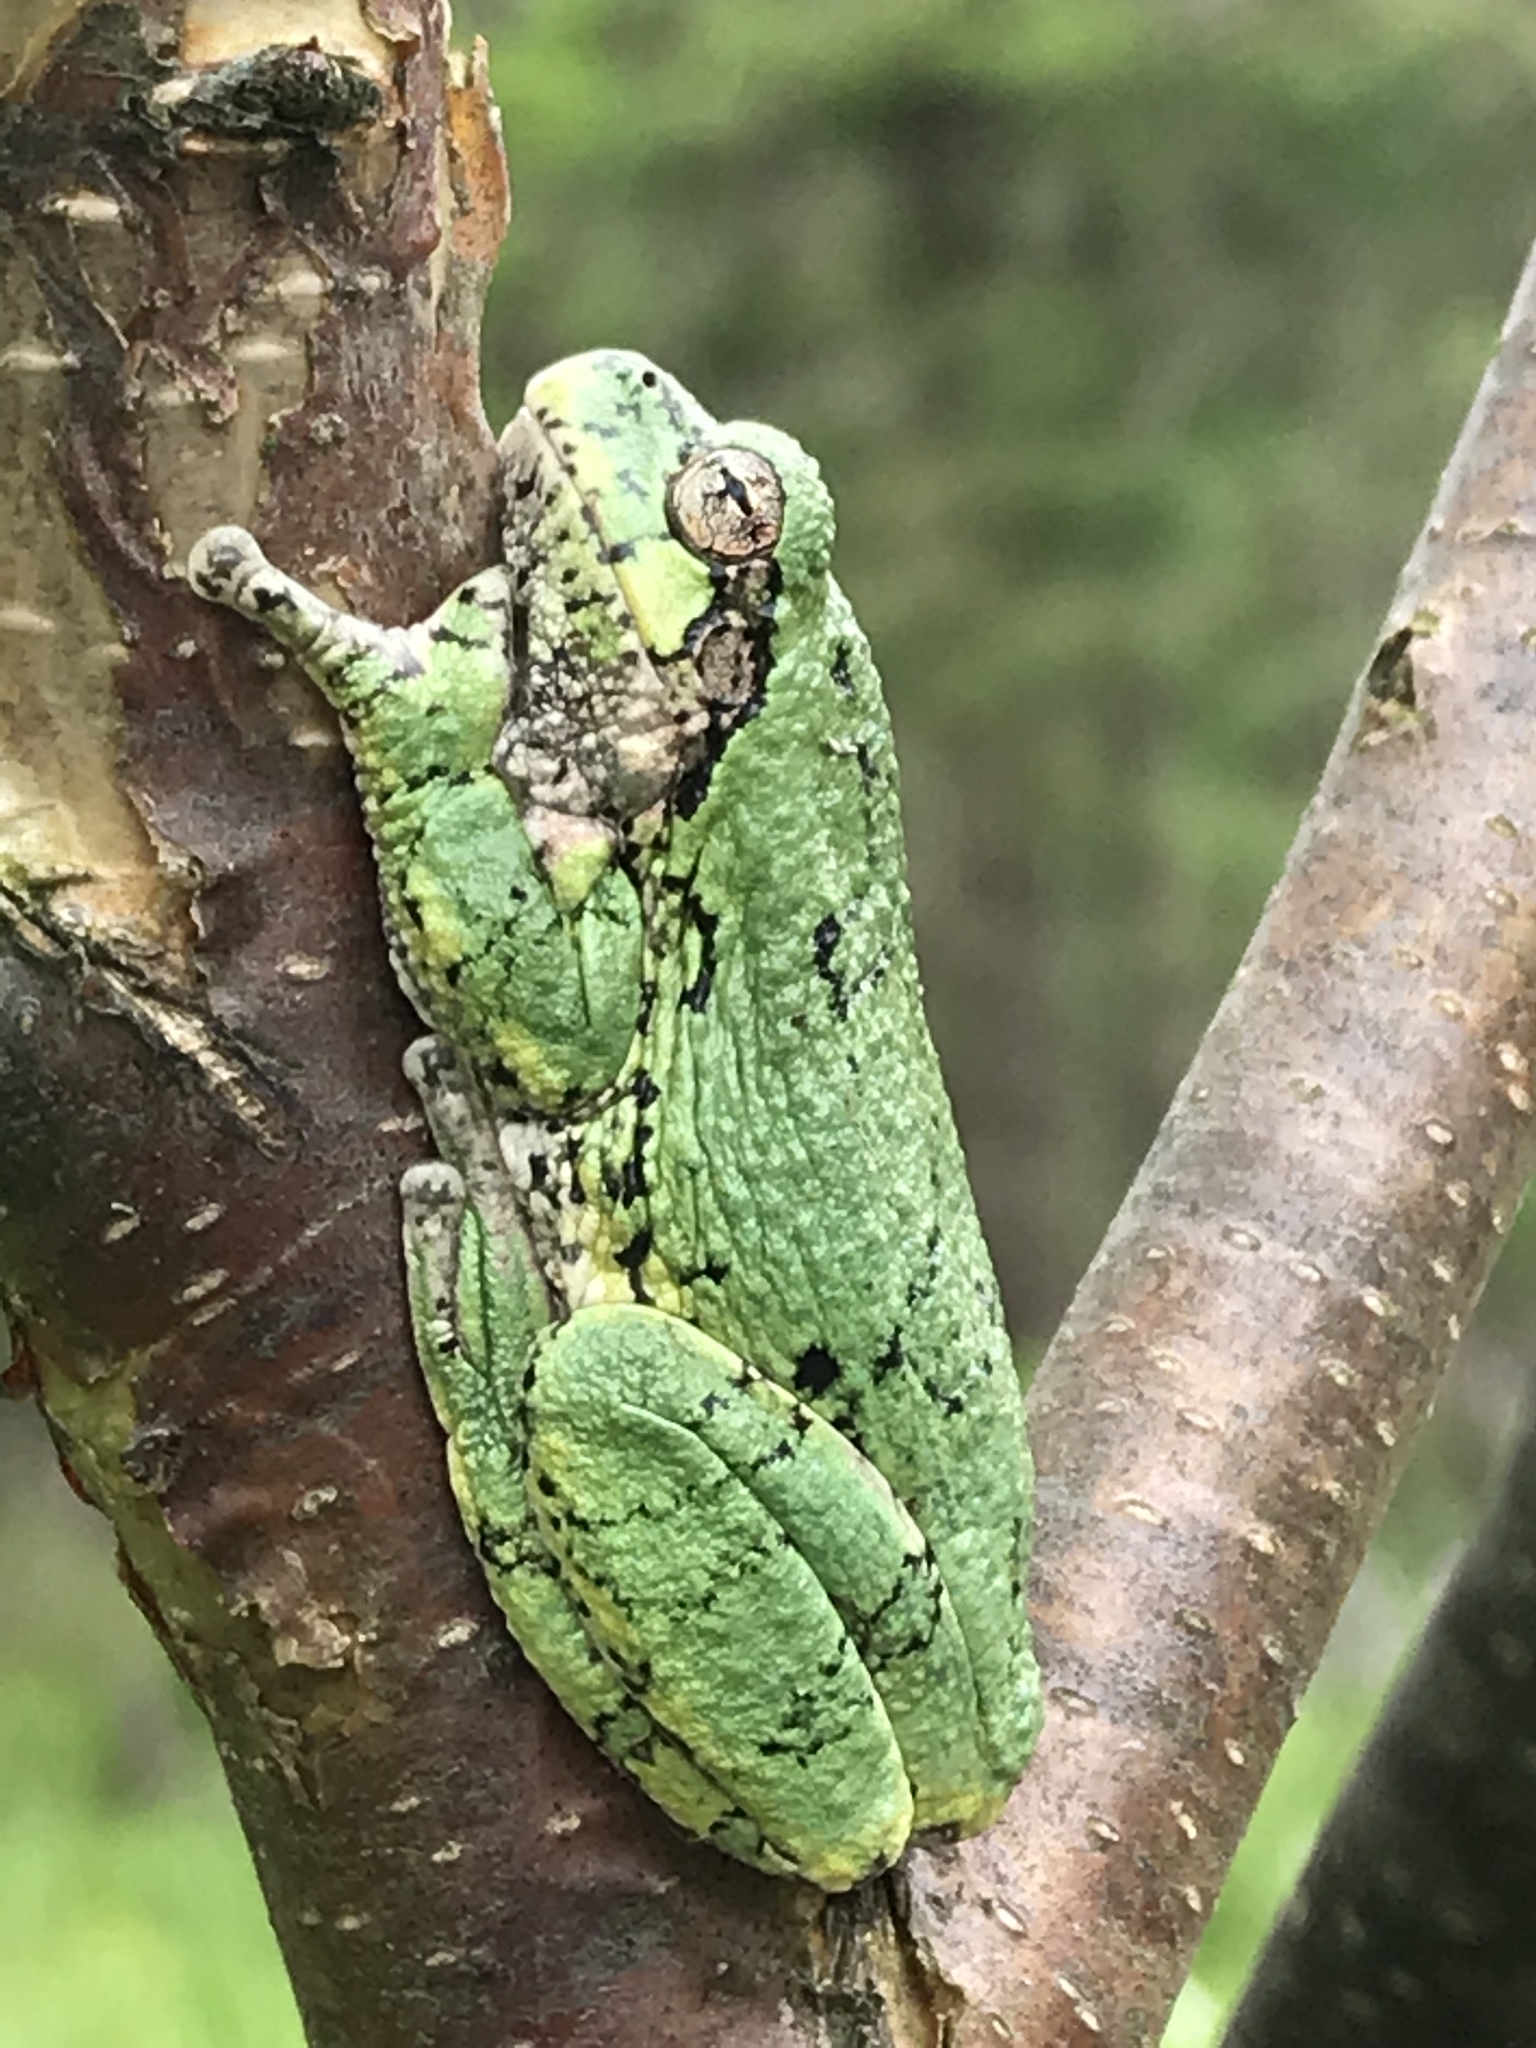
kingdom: Animalia
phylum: Chordata
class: Amphibia
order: Anura
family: Hylidae
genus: Dryophytes
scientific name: Dryophytes versicolor
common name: Gray treefrog
